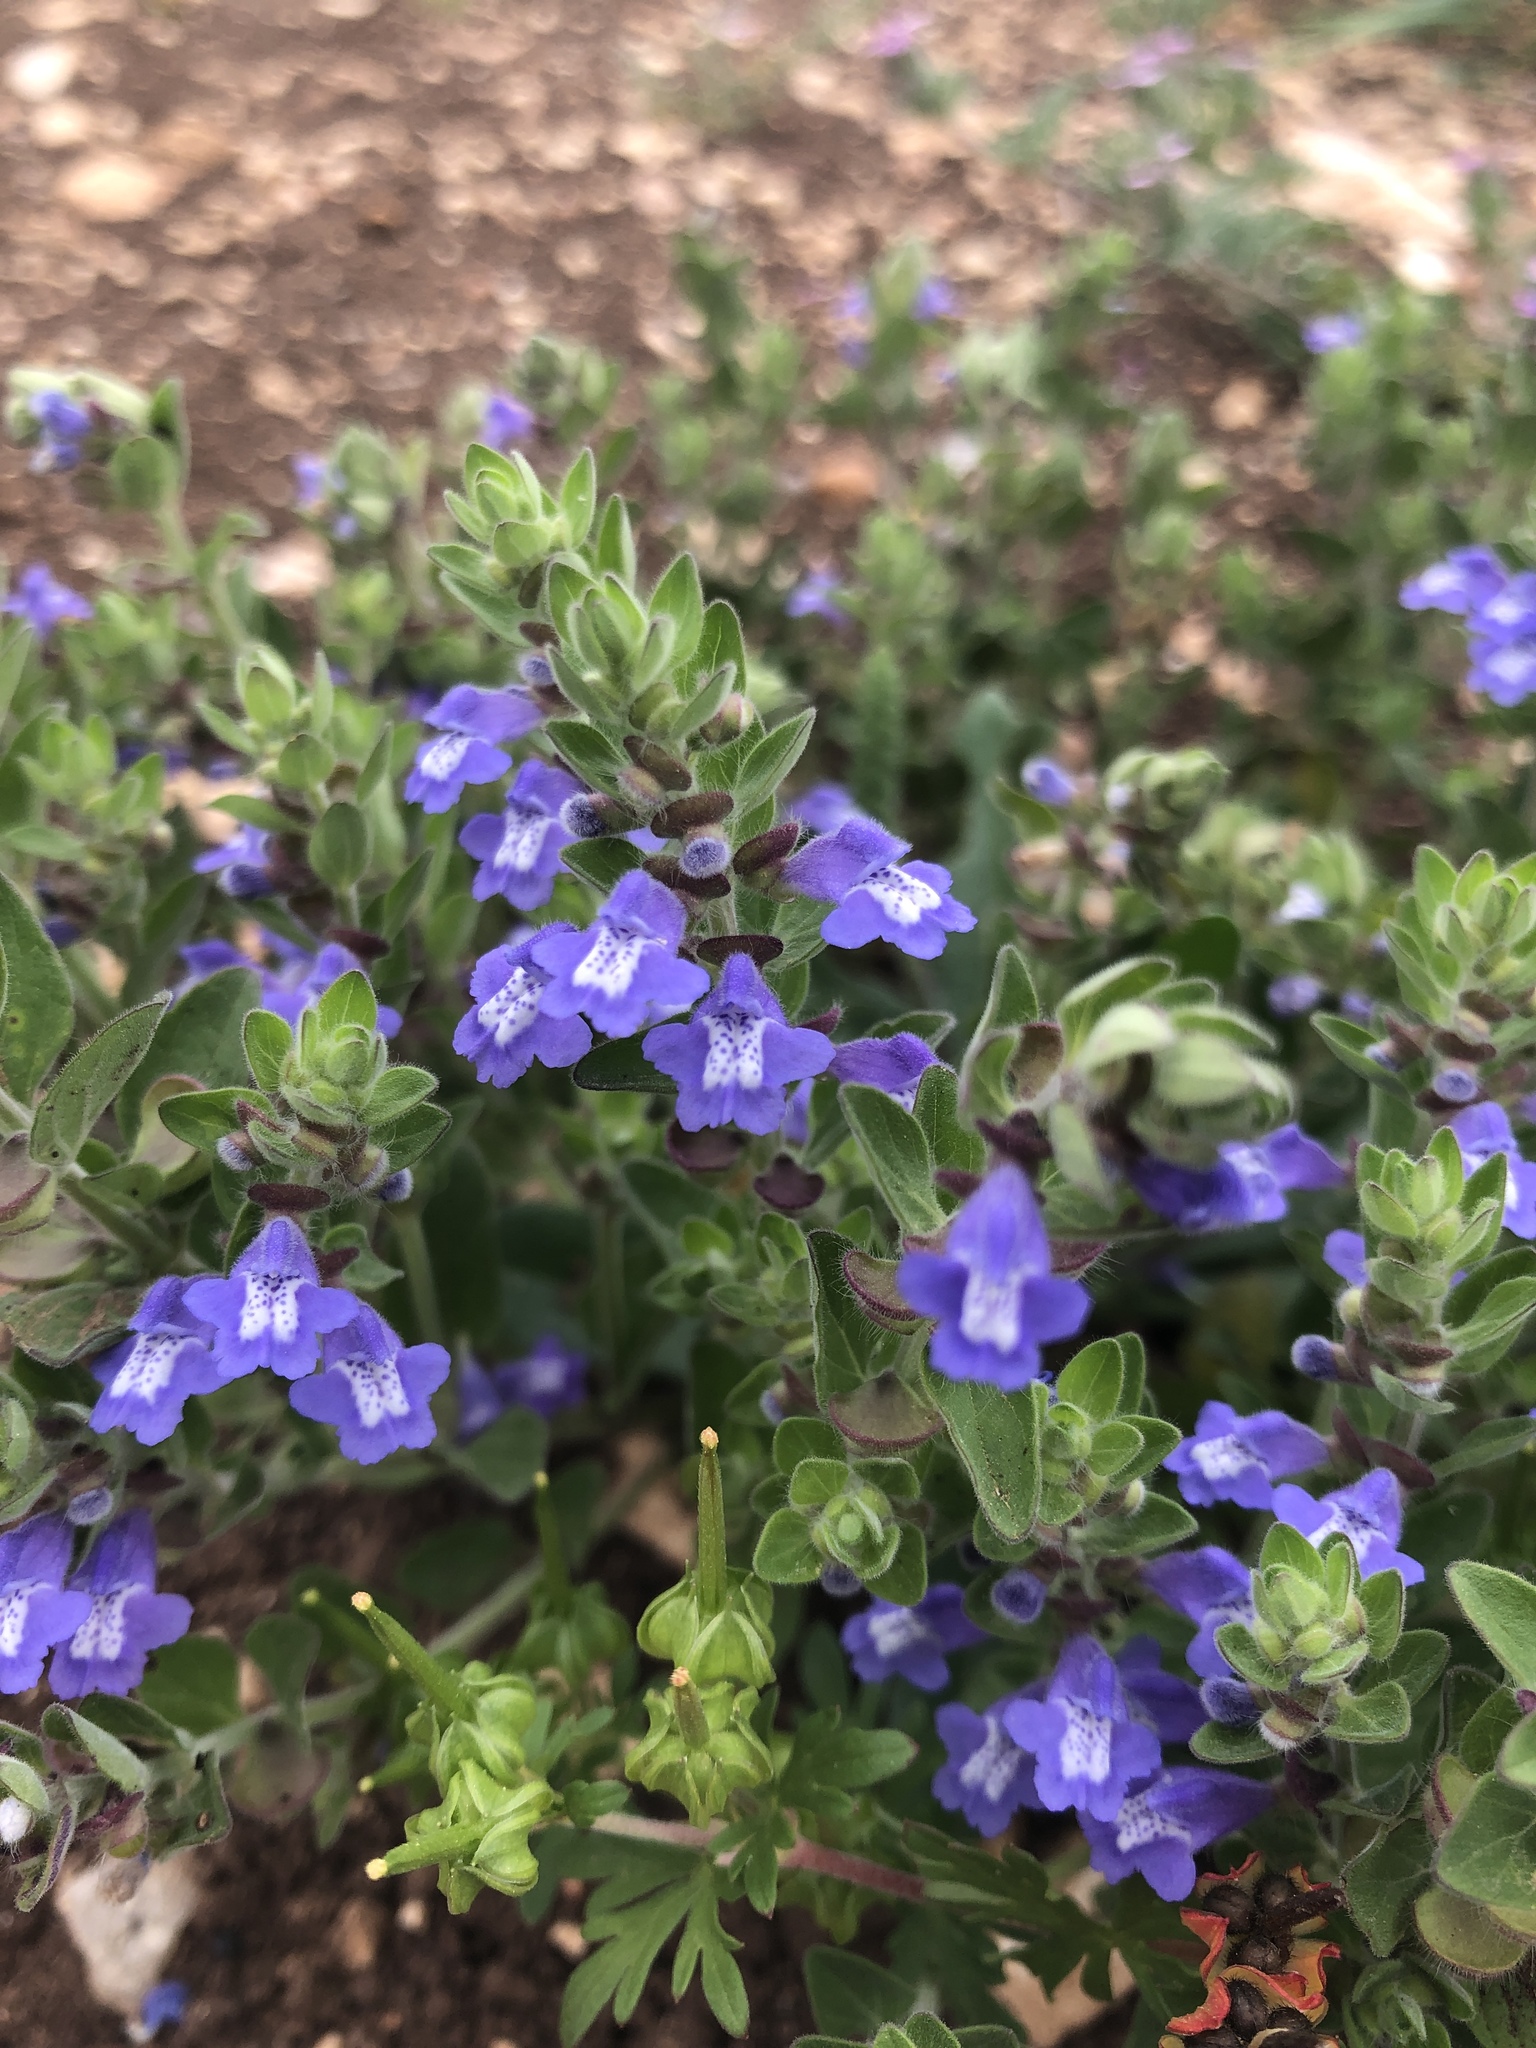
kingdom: Plantae
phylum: Tracheophyta
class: Magnoliopsida
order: Lamiales
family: Lamiaceae
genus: Scutellaria
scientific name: Scutellaria drummondii
